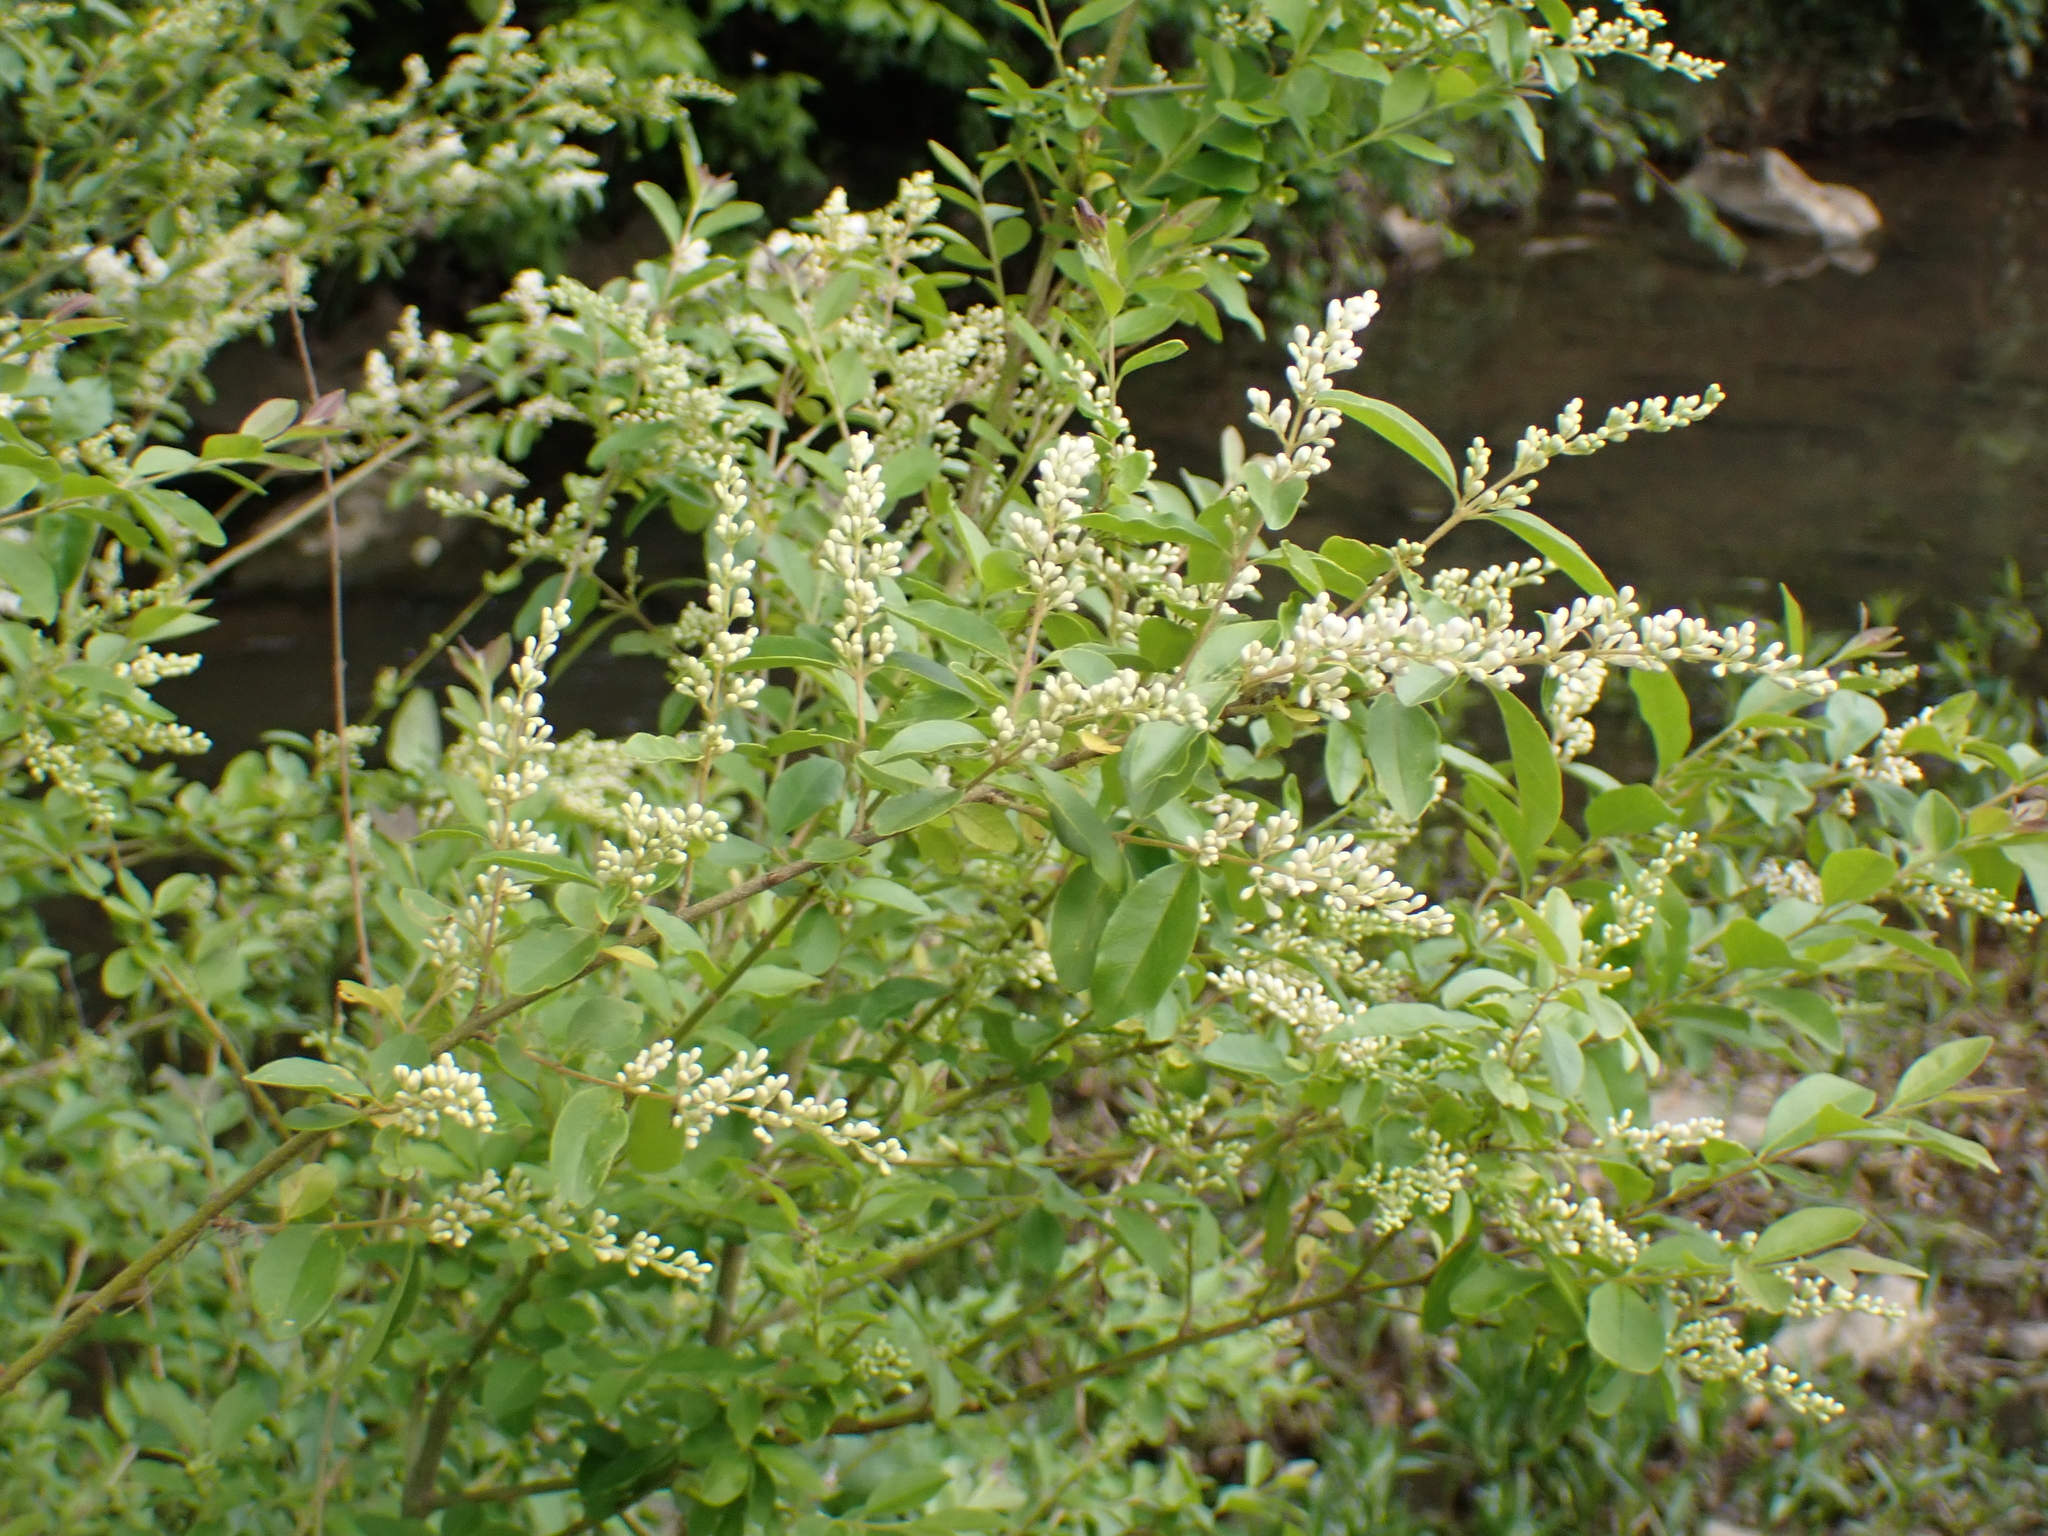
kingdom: Plantae
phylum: Tracheophyta
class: Magnoliopsida
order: Lamiales
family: Oleaceae
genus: Ligustrum
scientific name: Ligustrum sinense
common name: Chinese privet
